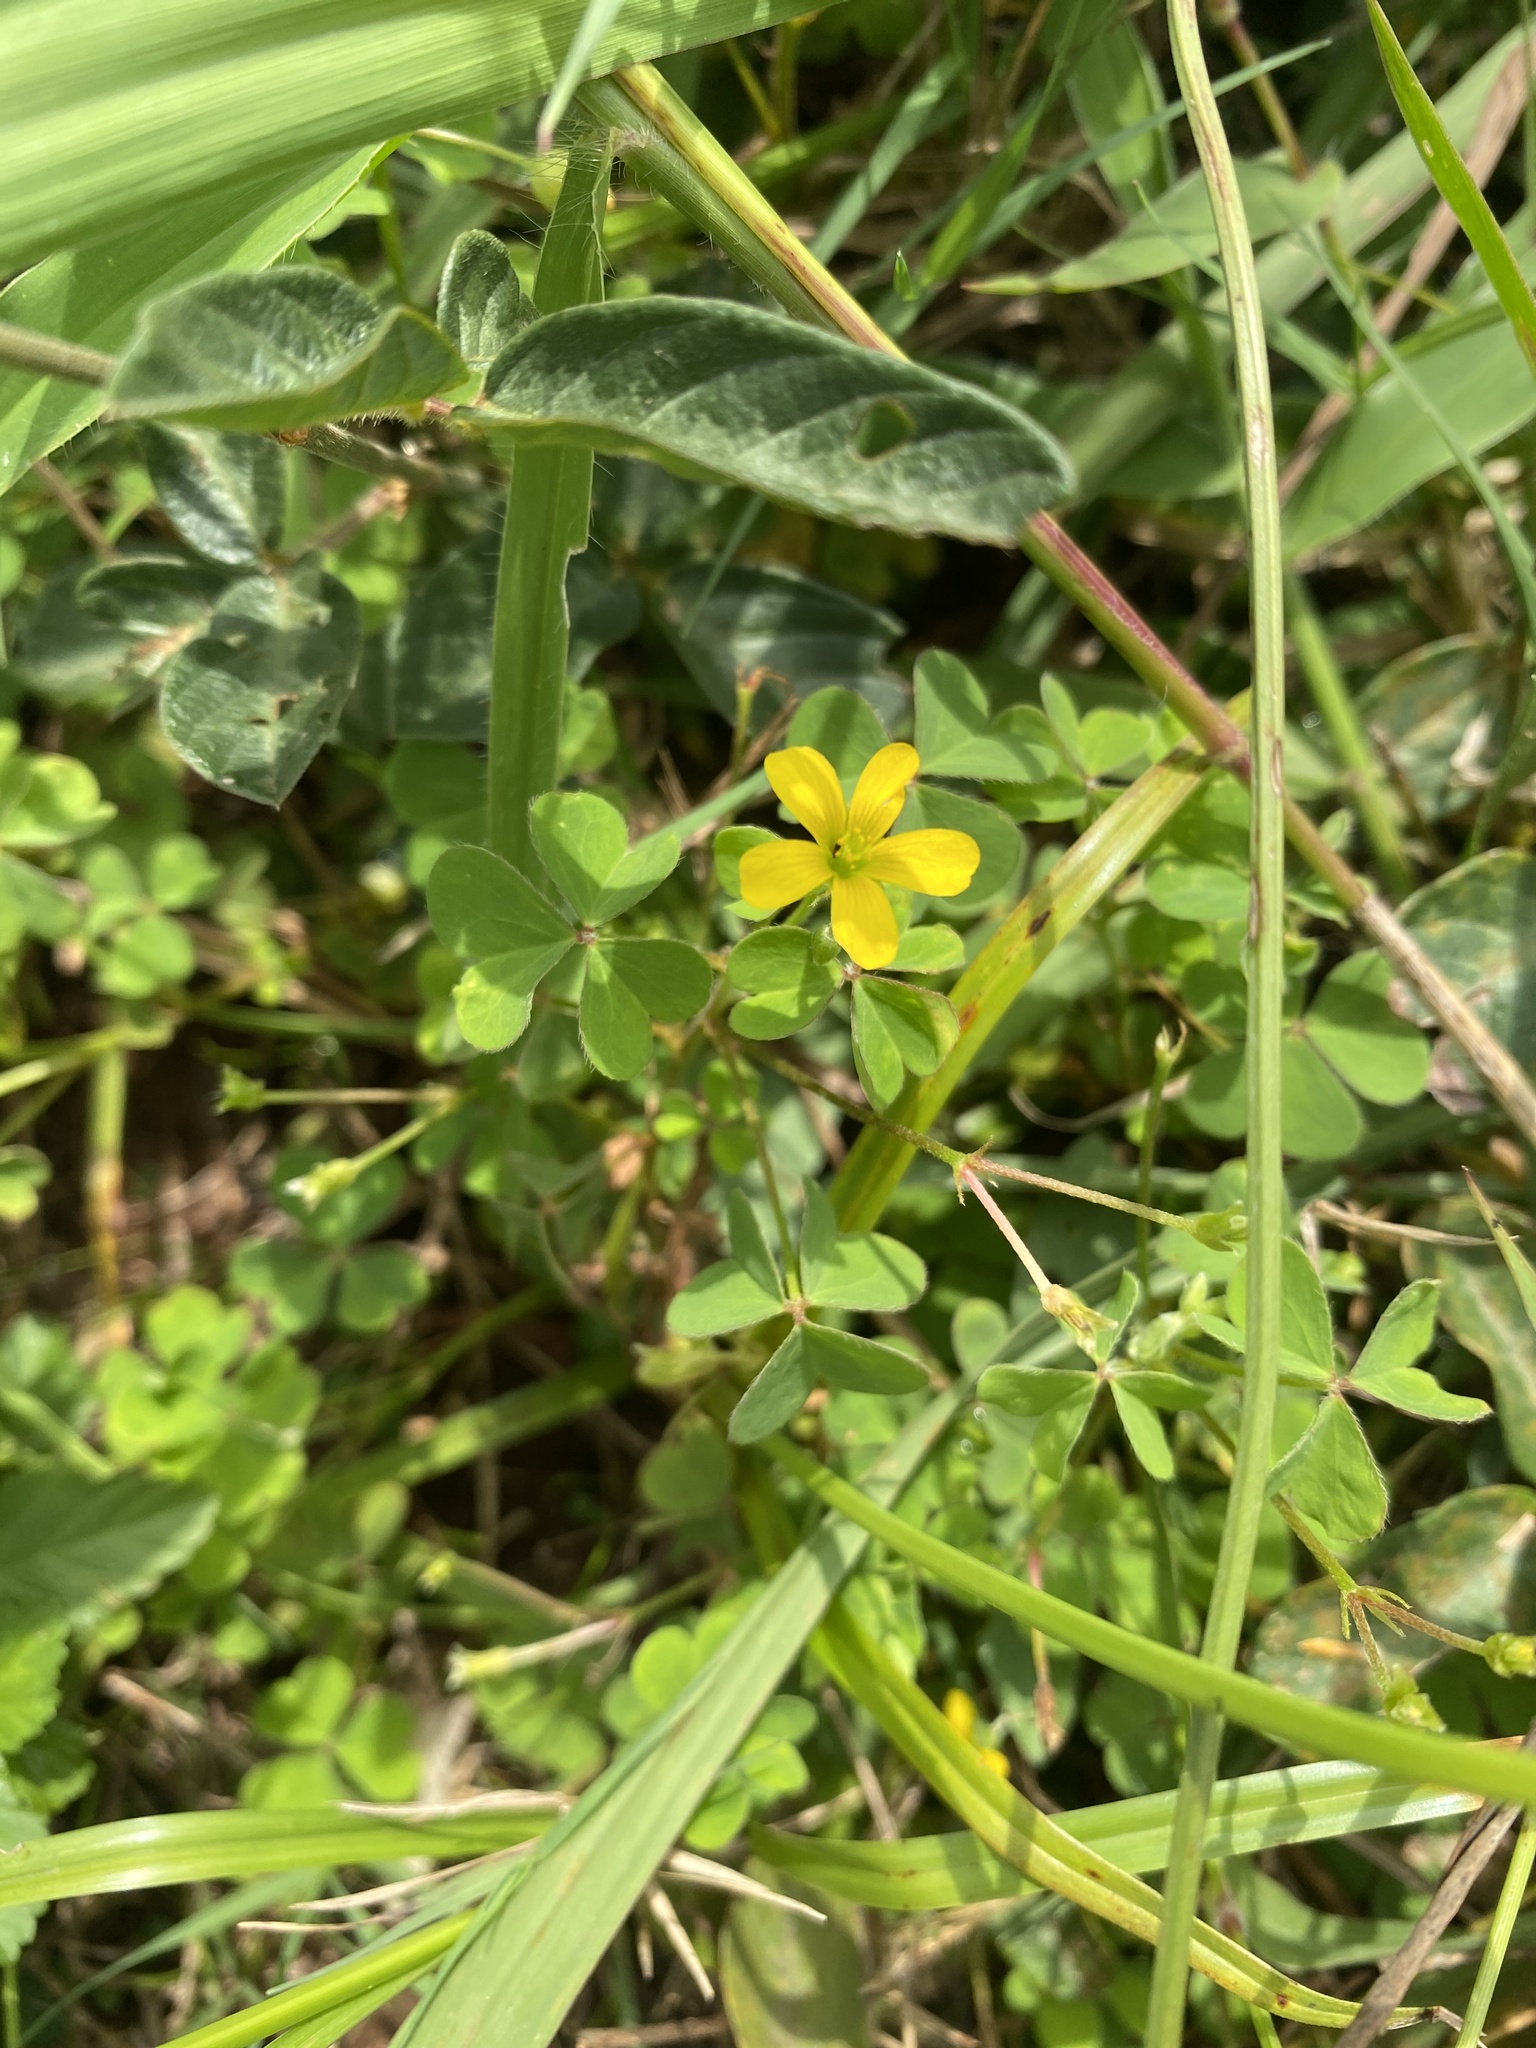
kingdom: Plantae
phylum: Tracheophyta
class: Magnoliopsida
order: Oxalidales
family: Oxalidaceae
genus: Oxalis
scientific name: Oxalis corniculata
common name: Procumbent yellow-sorrel
